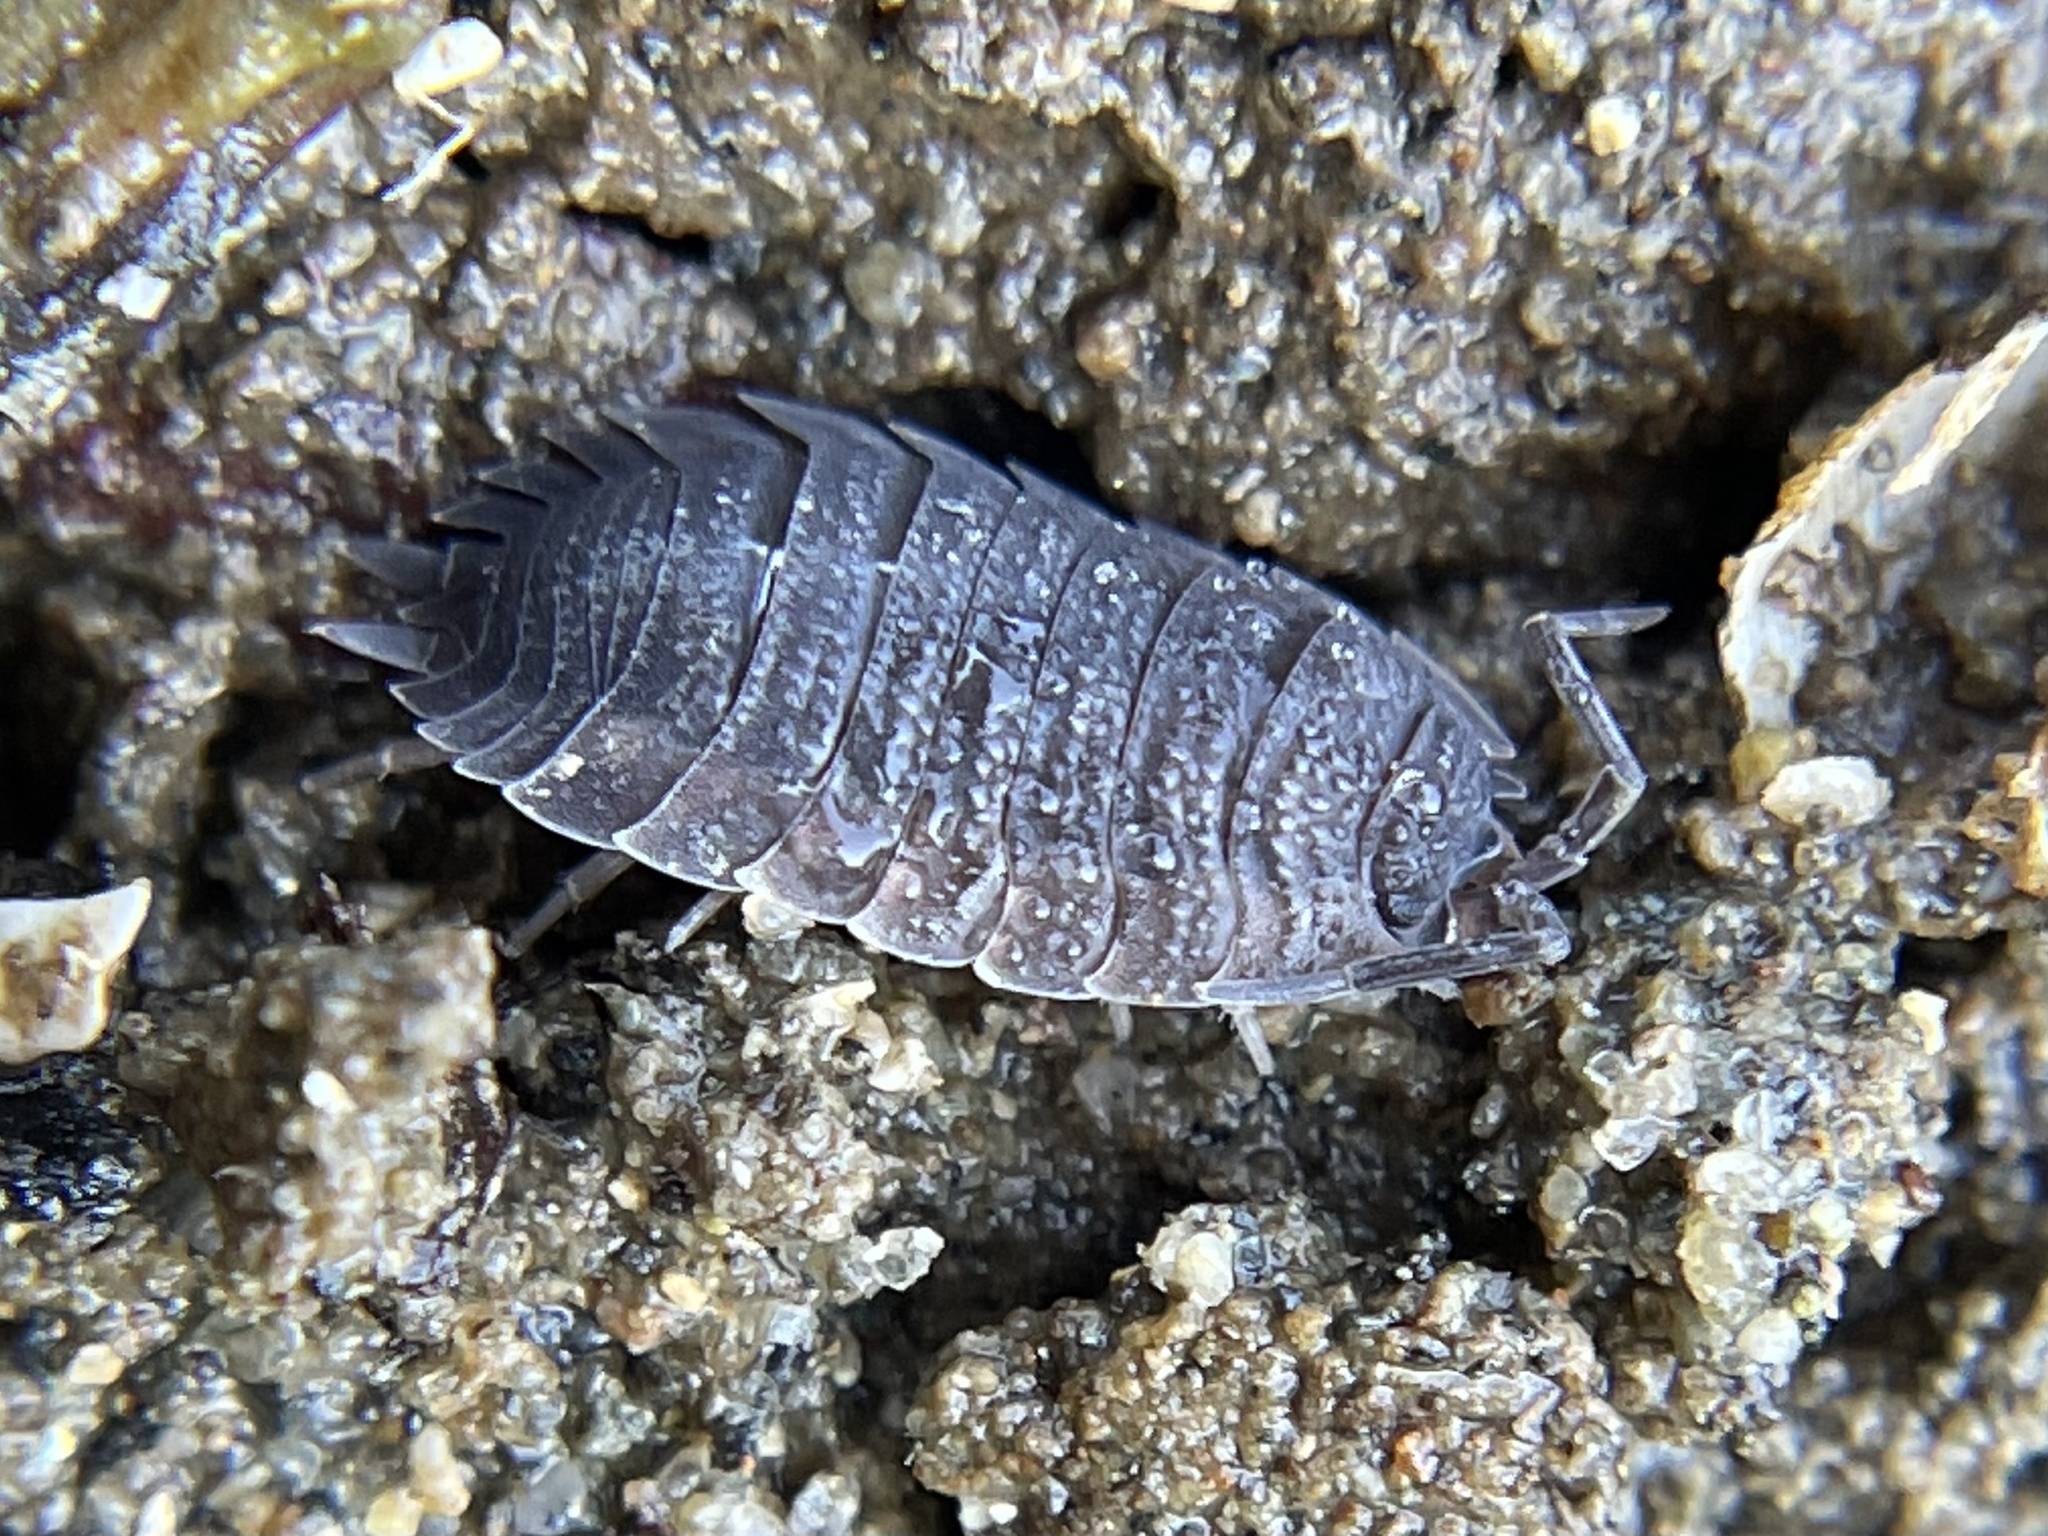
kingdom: Animalia
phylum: Arthropoda
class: Malacostraca
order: Isopoda
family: Porcellionidae
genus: Porcellio
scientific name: Porcellio scaber
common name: Common rough woodlouse
